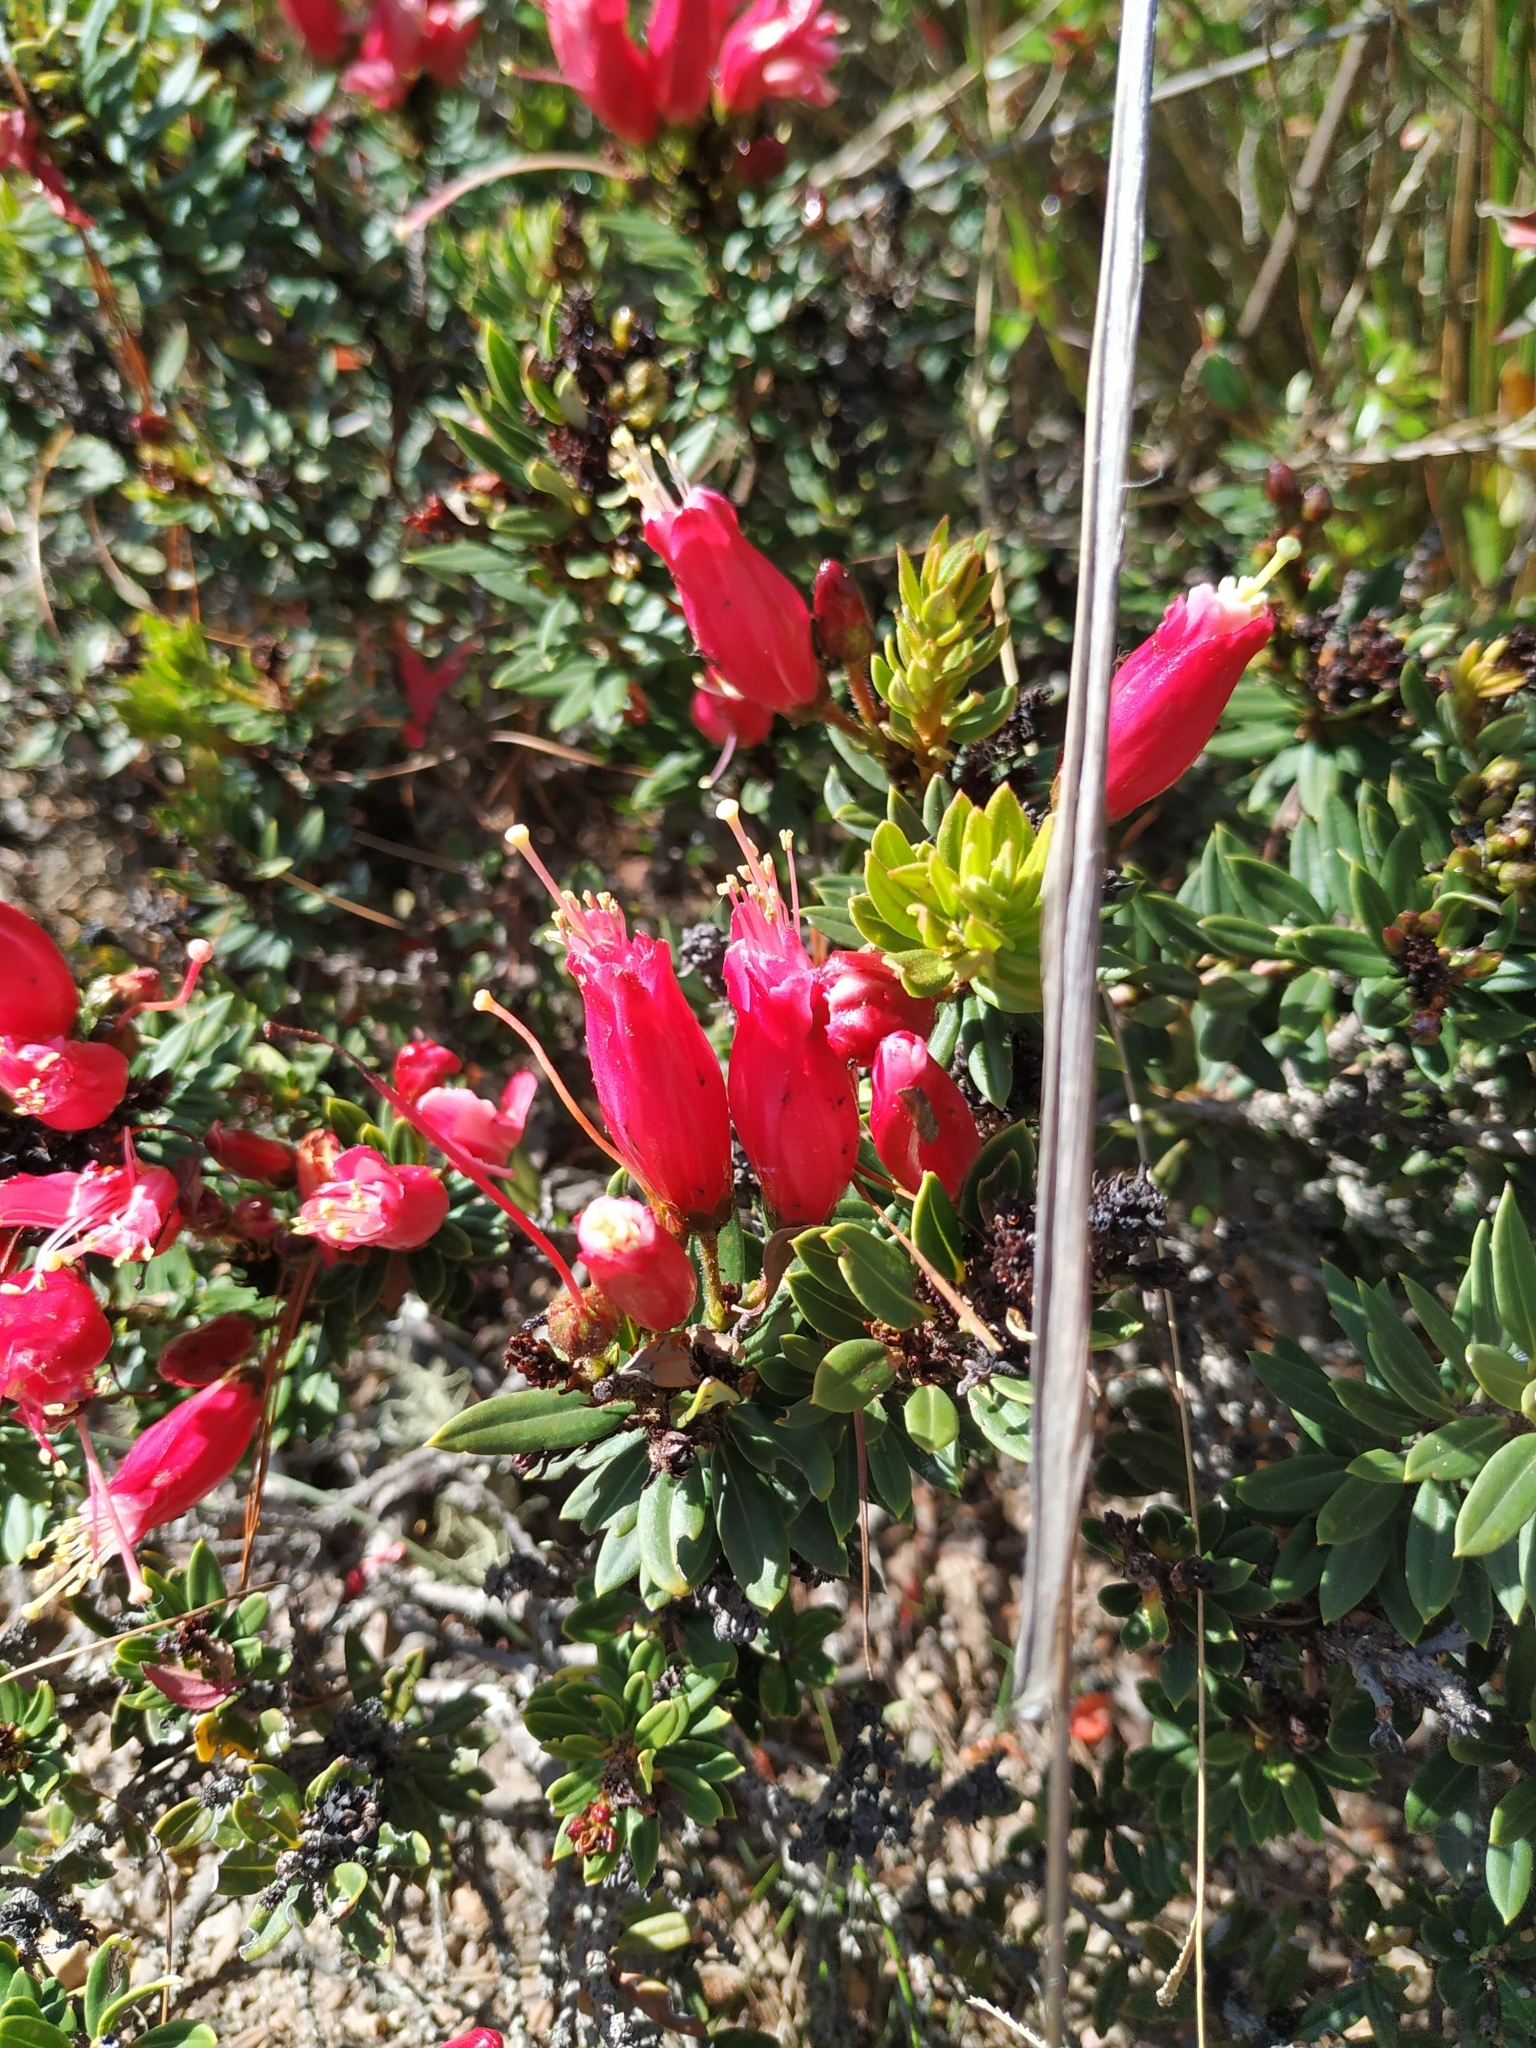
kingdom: Plantae
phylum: Tracheophyta
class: Magnoliopsida
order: Ericales
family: Ericaceae
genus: Bejaria
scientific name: Bejaria resinosa
